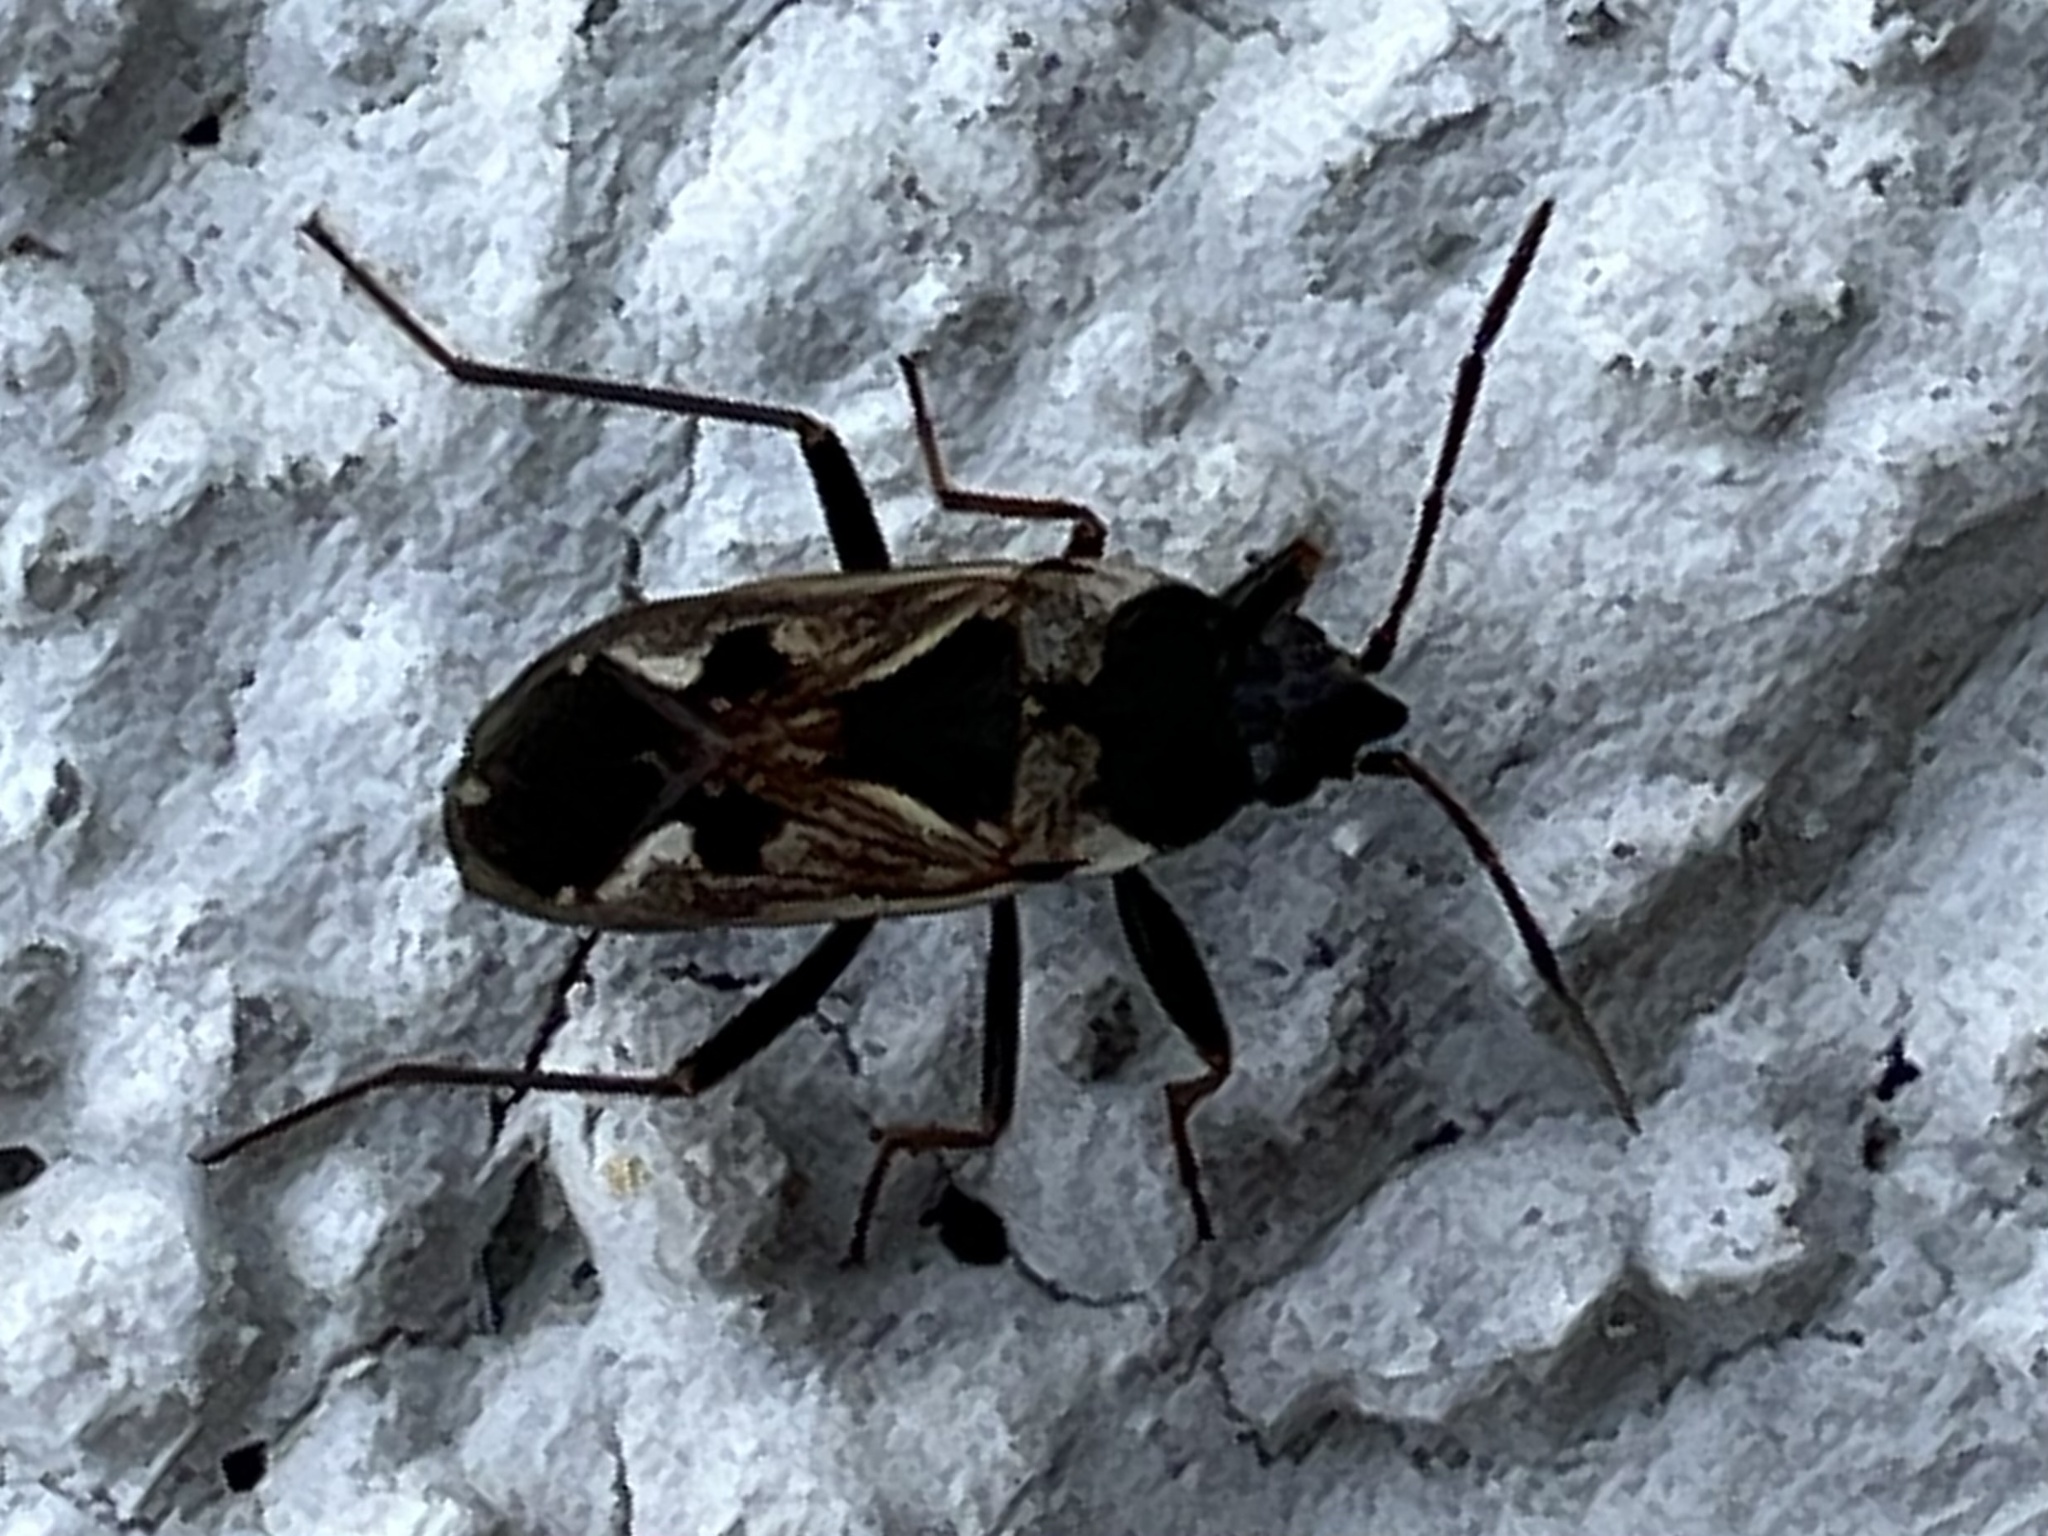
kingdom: Animalia
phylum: Arthropoda
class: Insecta
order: Hemiptera
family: Rhyparochromidae
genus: Rhyparochromus
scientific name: Rhyparochromus vulgaris
